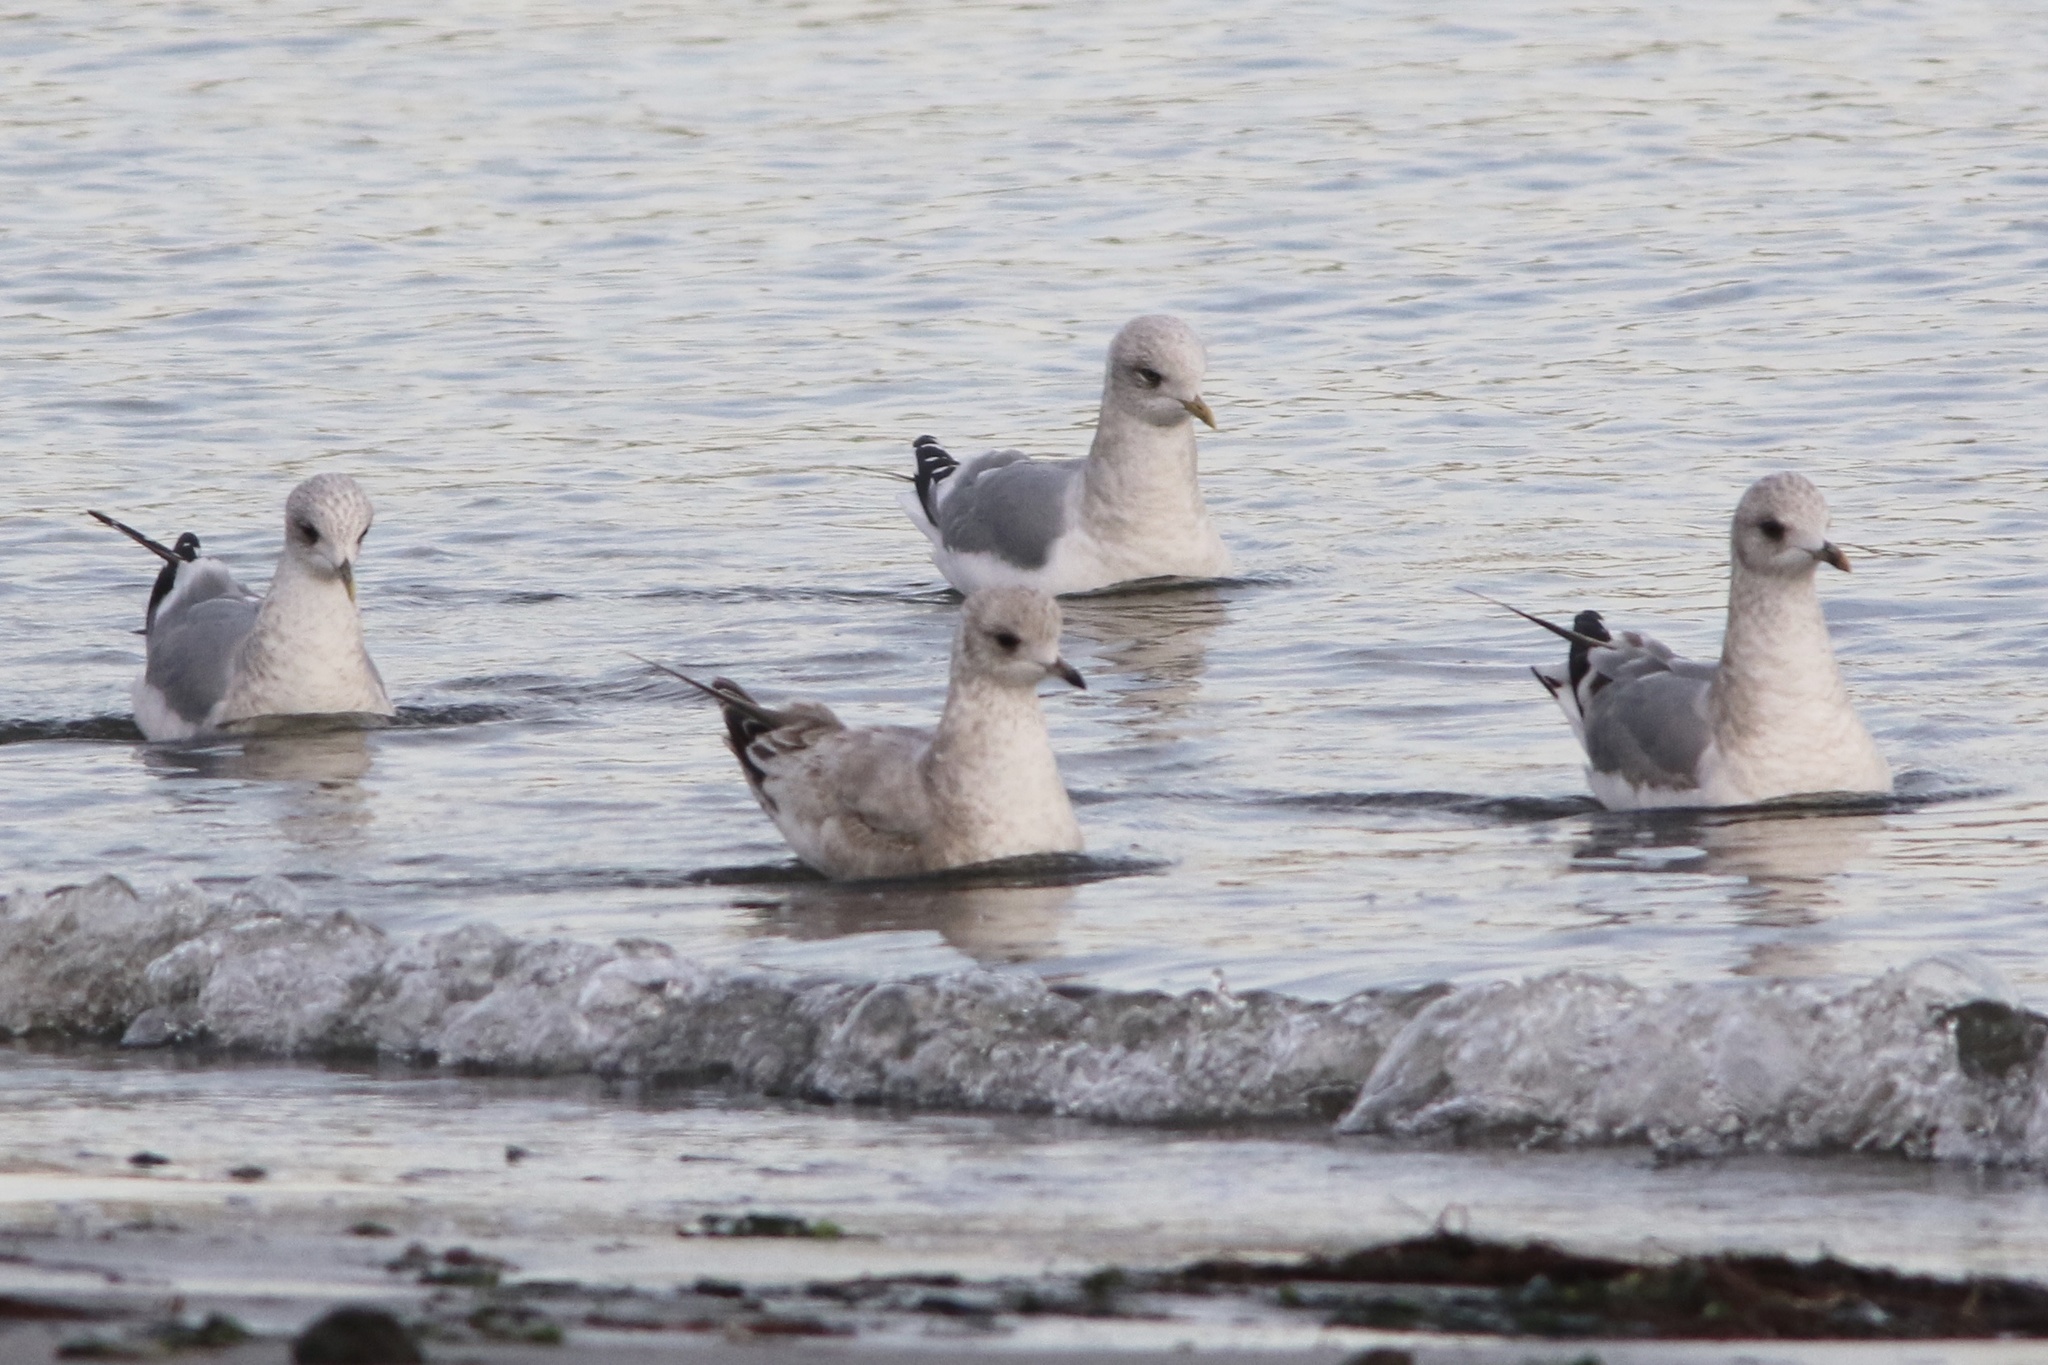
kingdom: Animalia
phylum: Chordata
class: Aves
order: Charadriiformes
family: Laridae
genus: Larus
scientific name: Larus brachyrhynchus
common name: Short-billed gull
